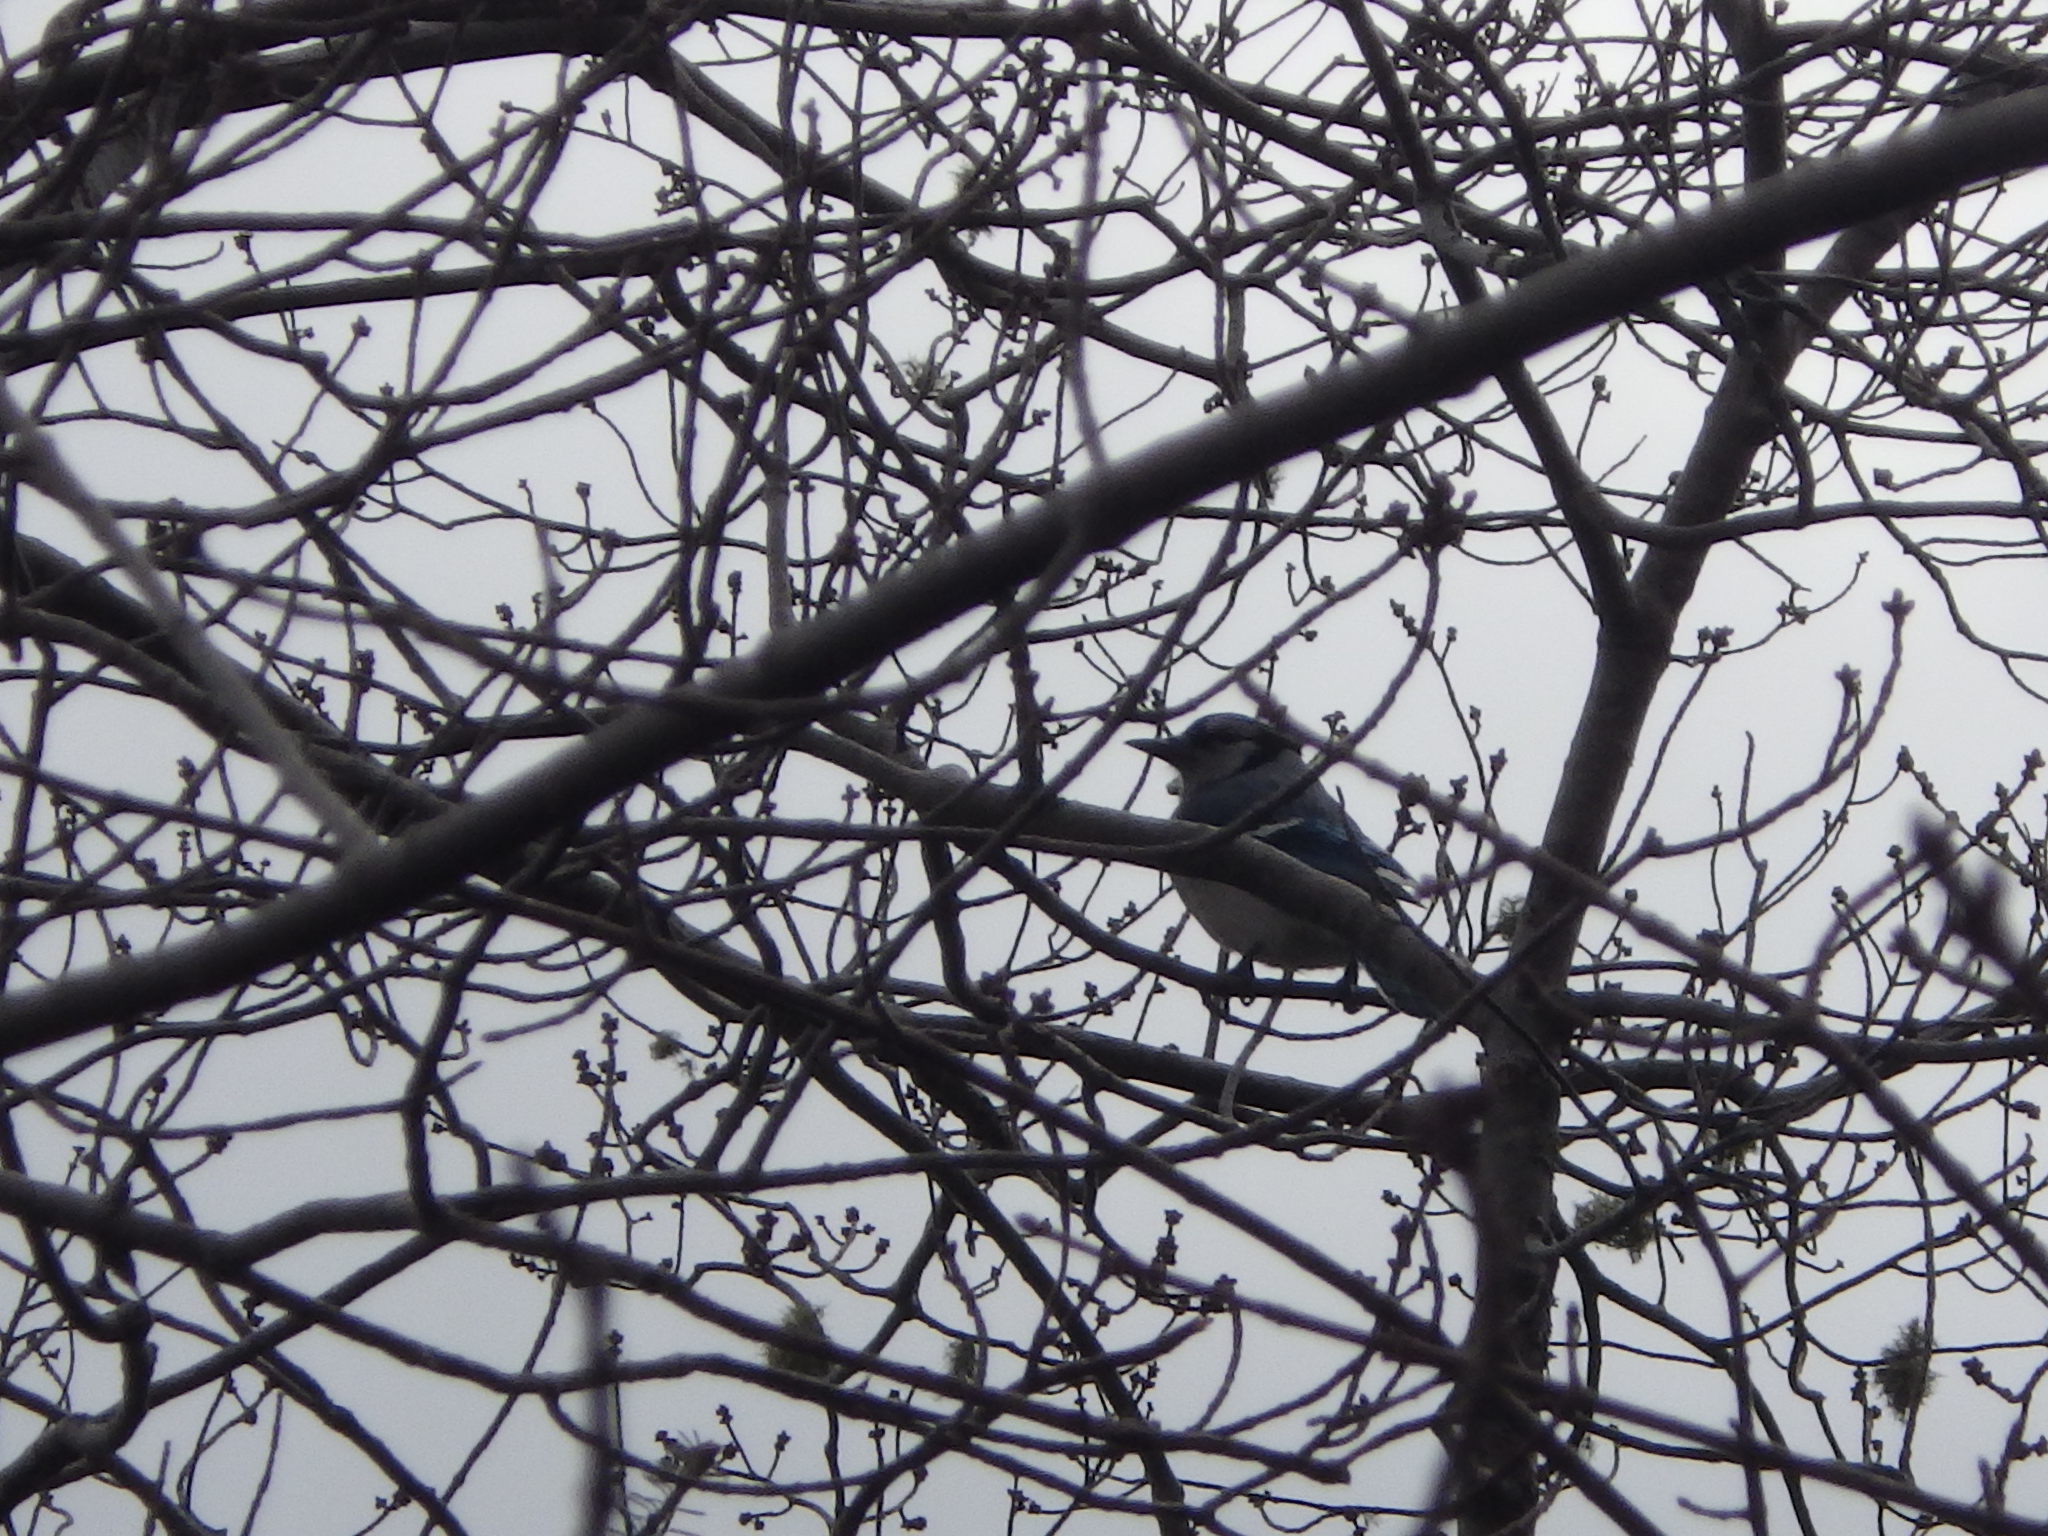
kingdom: Animalia
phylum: Chordata
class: Aves
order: Passeriformes
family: Corvidae
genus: Cyanocitta
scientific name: Cyanocitta cristata
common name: Blue jay
